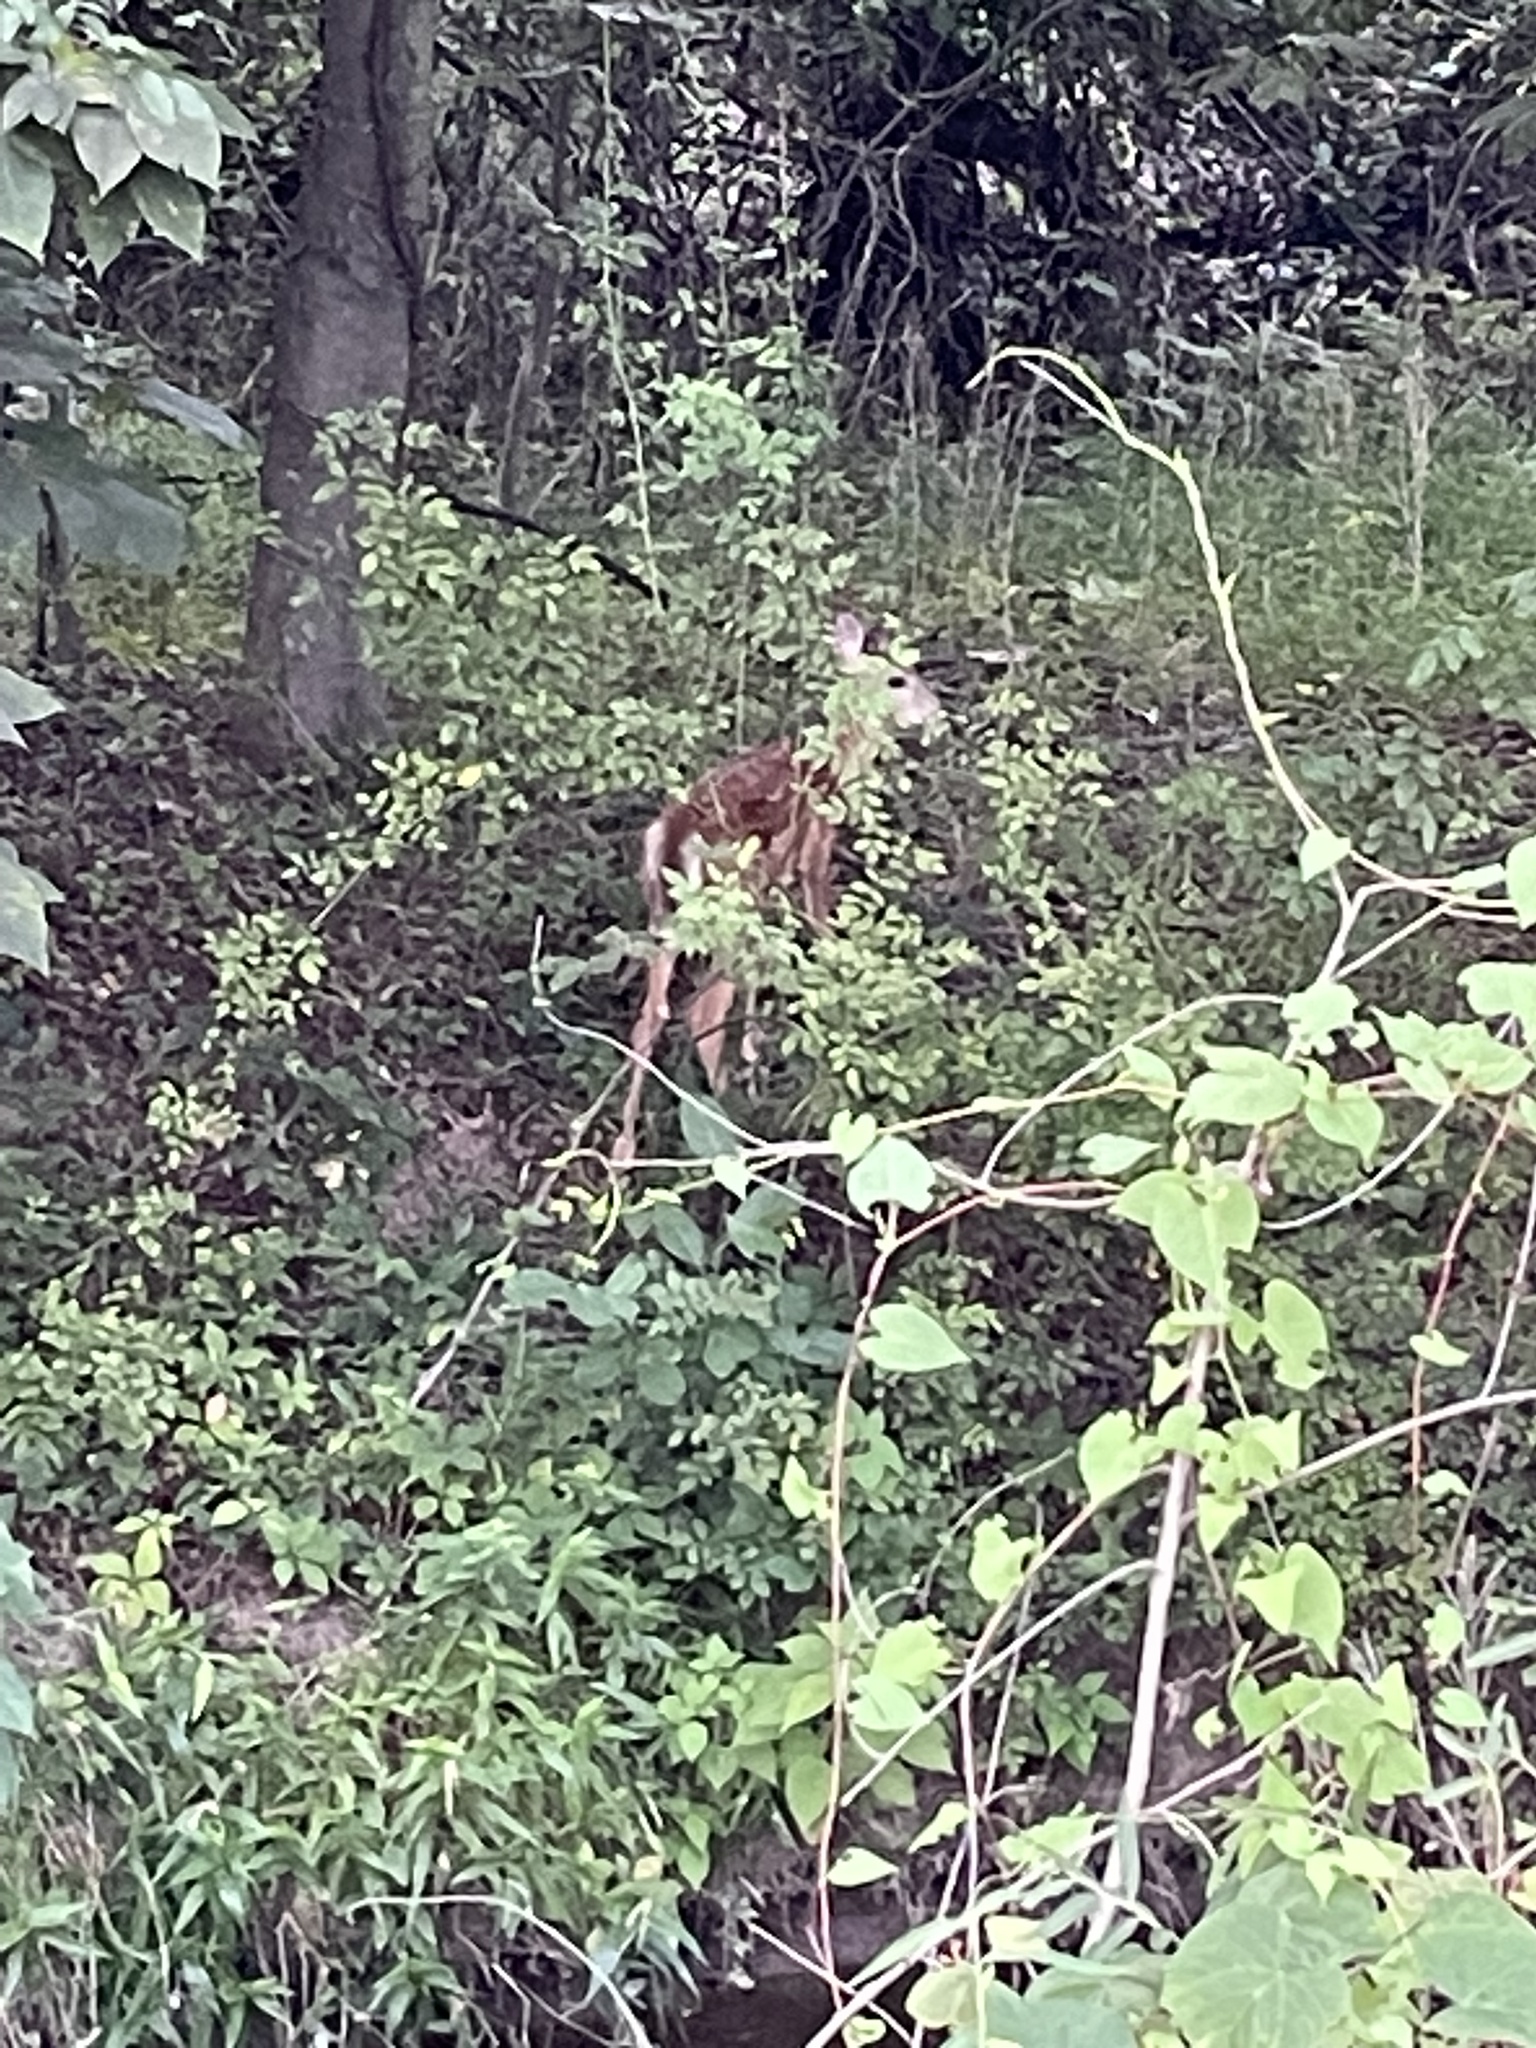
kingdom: Animalia
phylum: Chordata
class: Mammalia
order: Artiodactyla
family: Cervidae
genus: Odocoileus
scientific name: Odocoileus virginianus
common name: White-tailed deer
